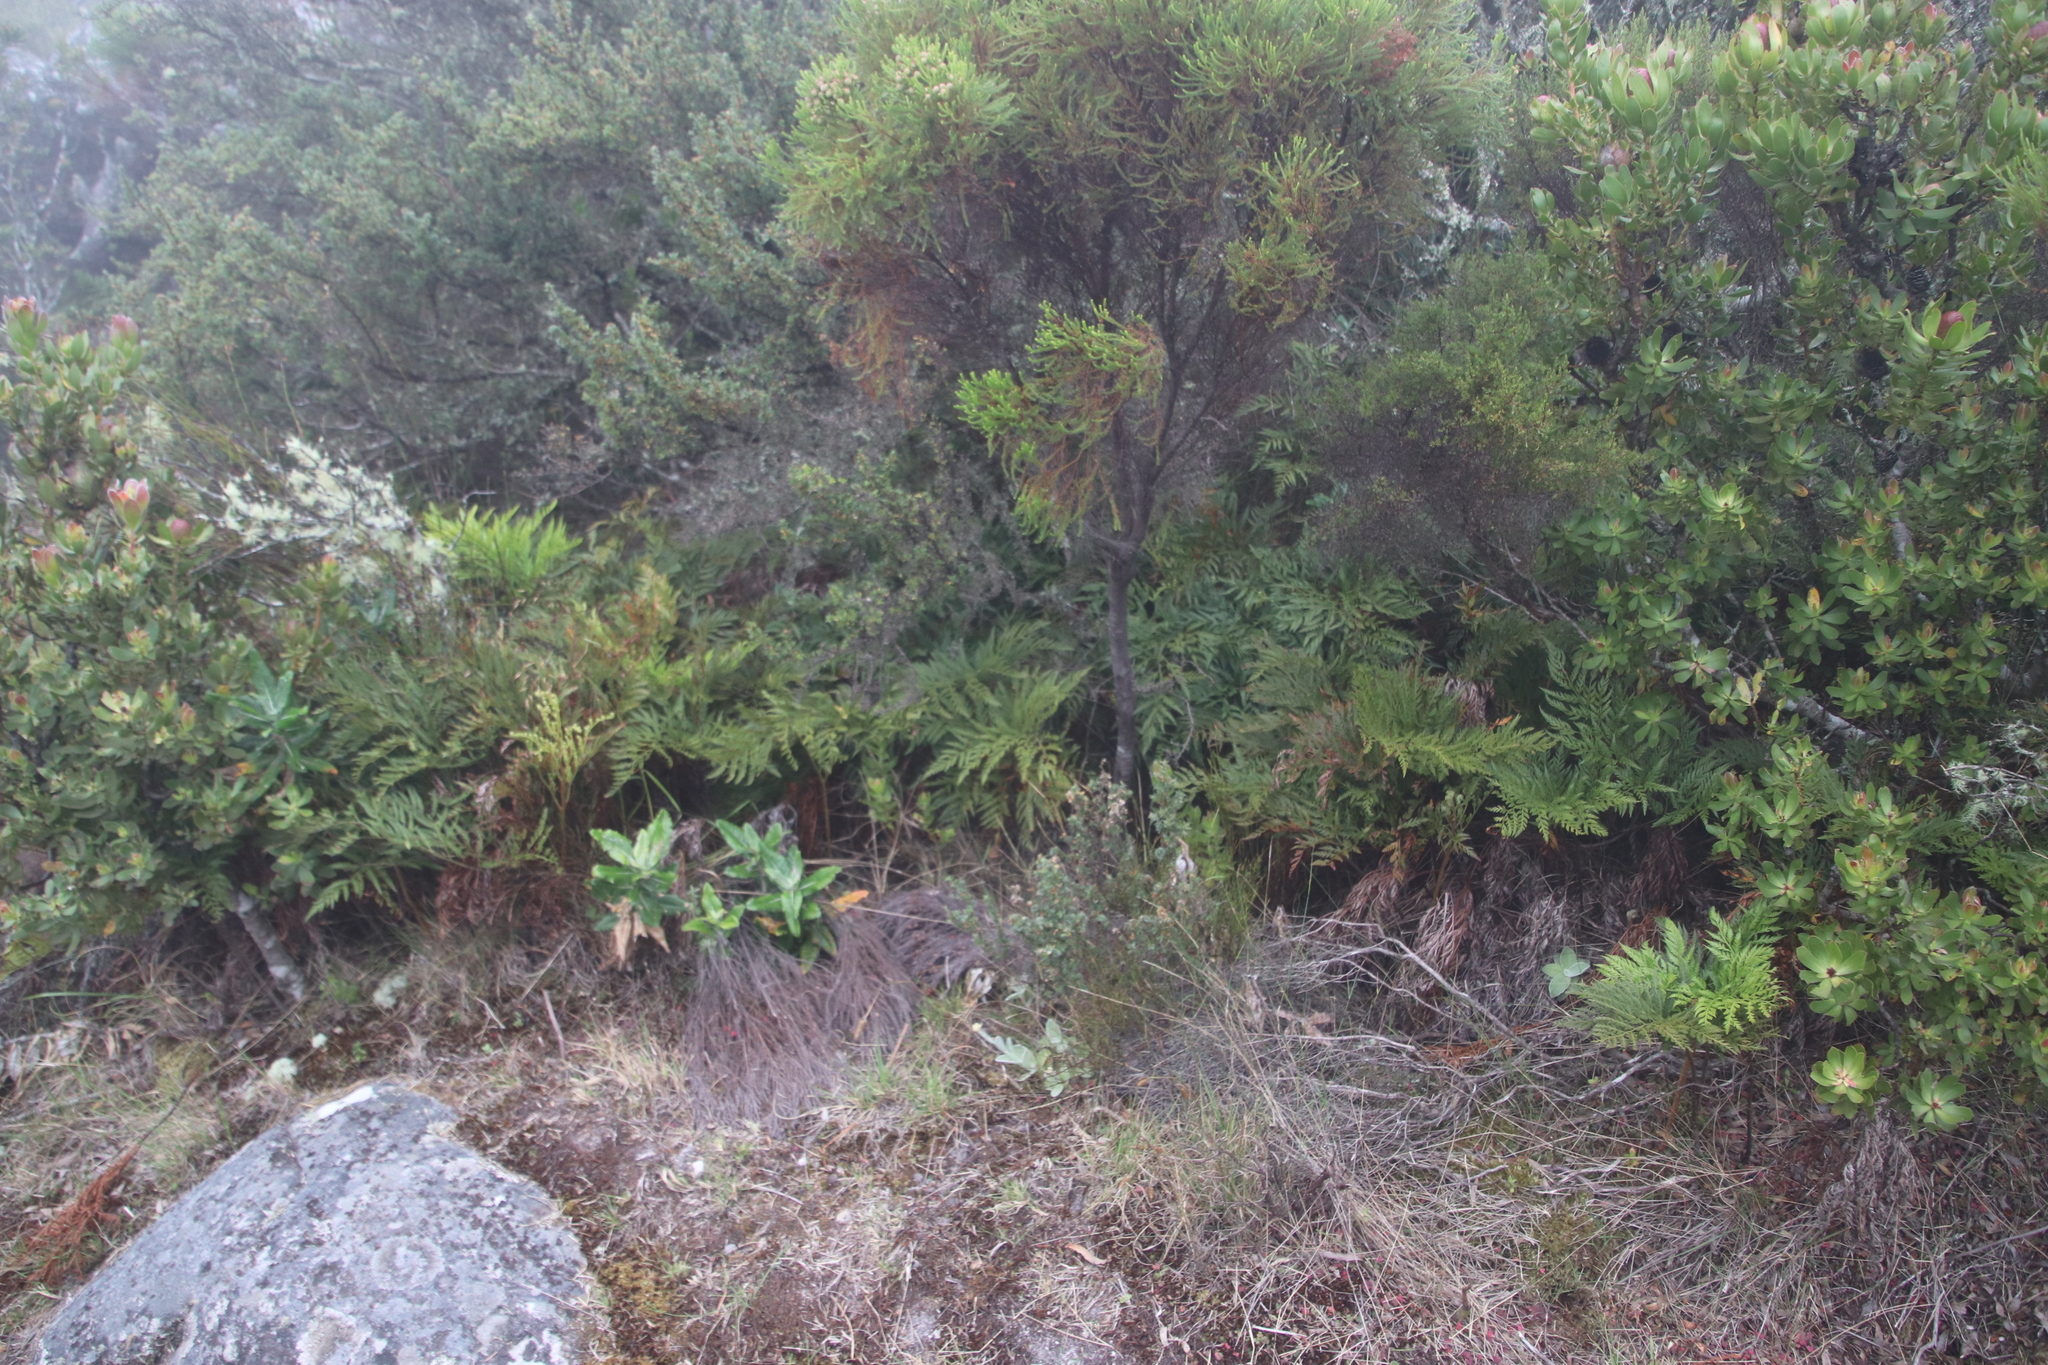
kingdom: Plantae
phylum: Tracheophyta
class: Polypodiopsida
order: Polypodiales
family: Dryopteridaceae
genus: Rumohra
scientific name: Rumohra adiantiformis
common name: Leather fern
